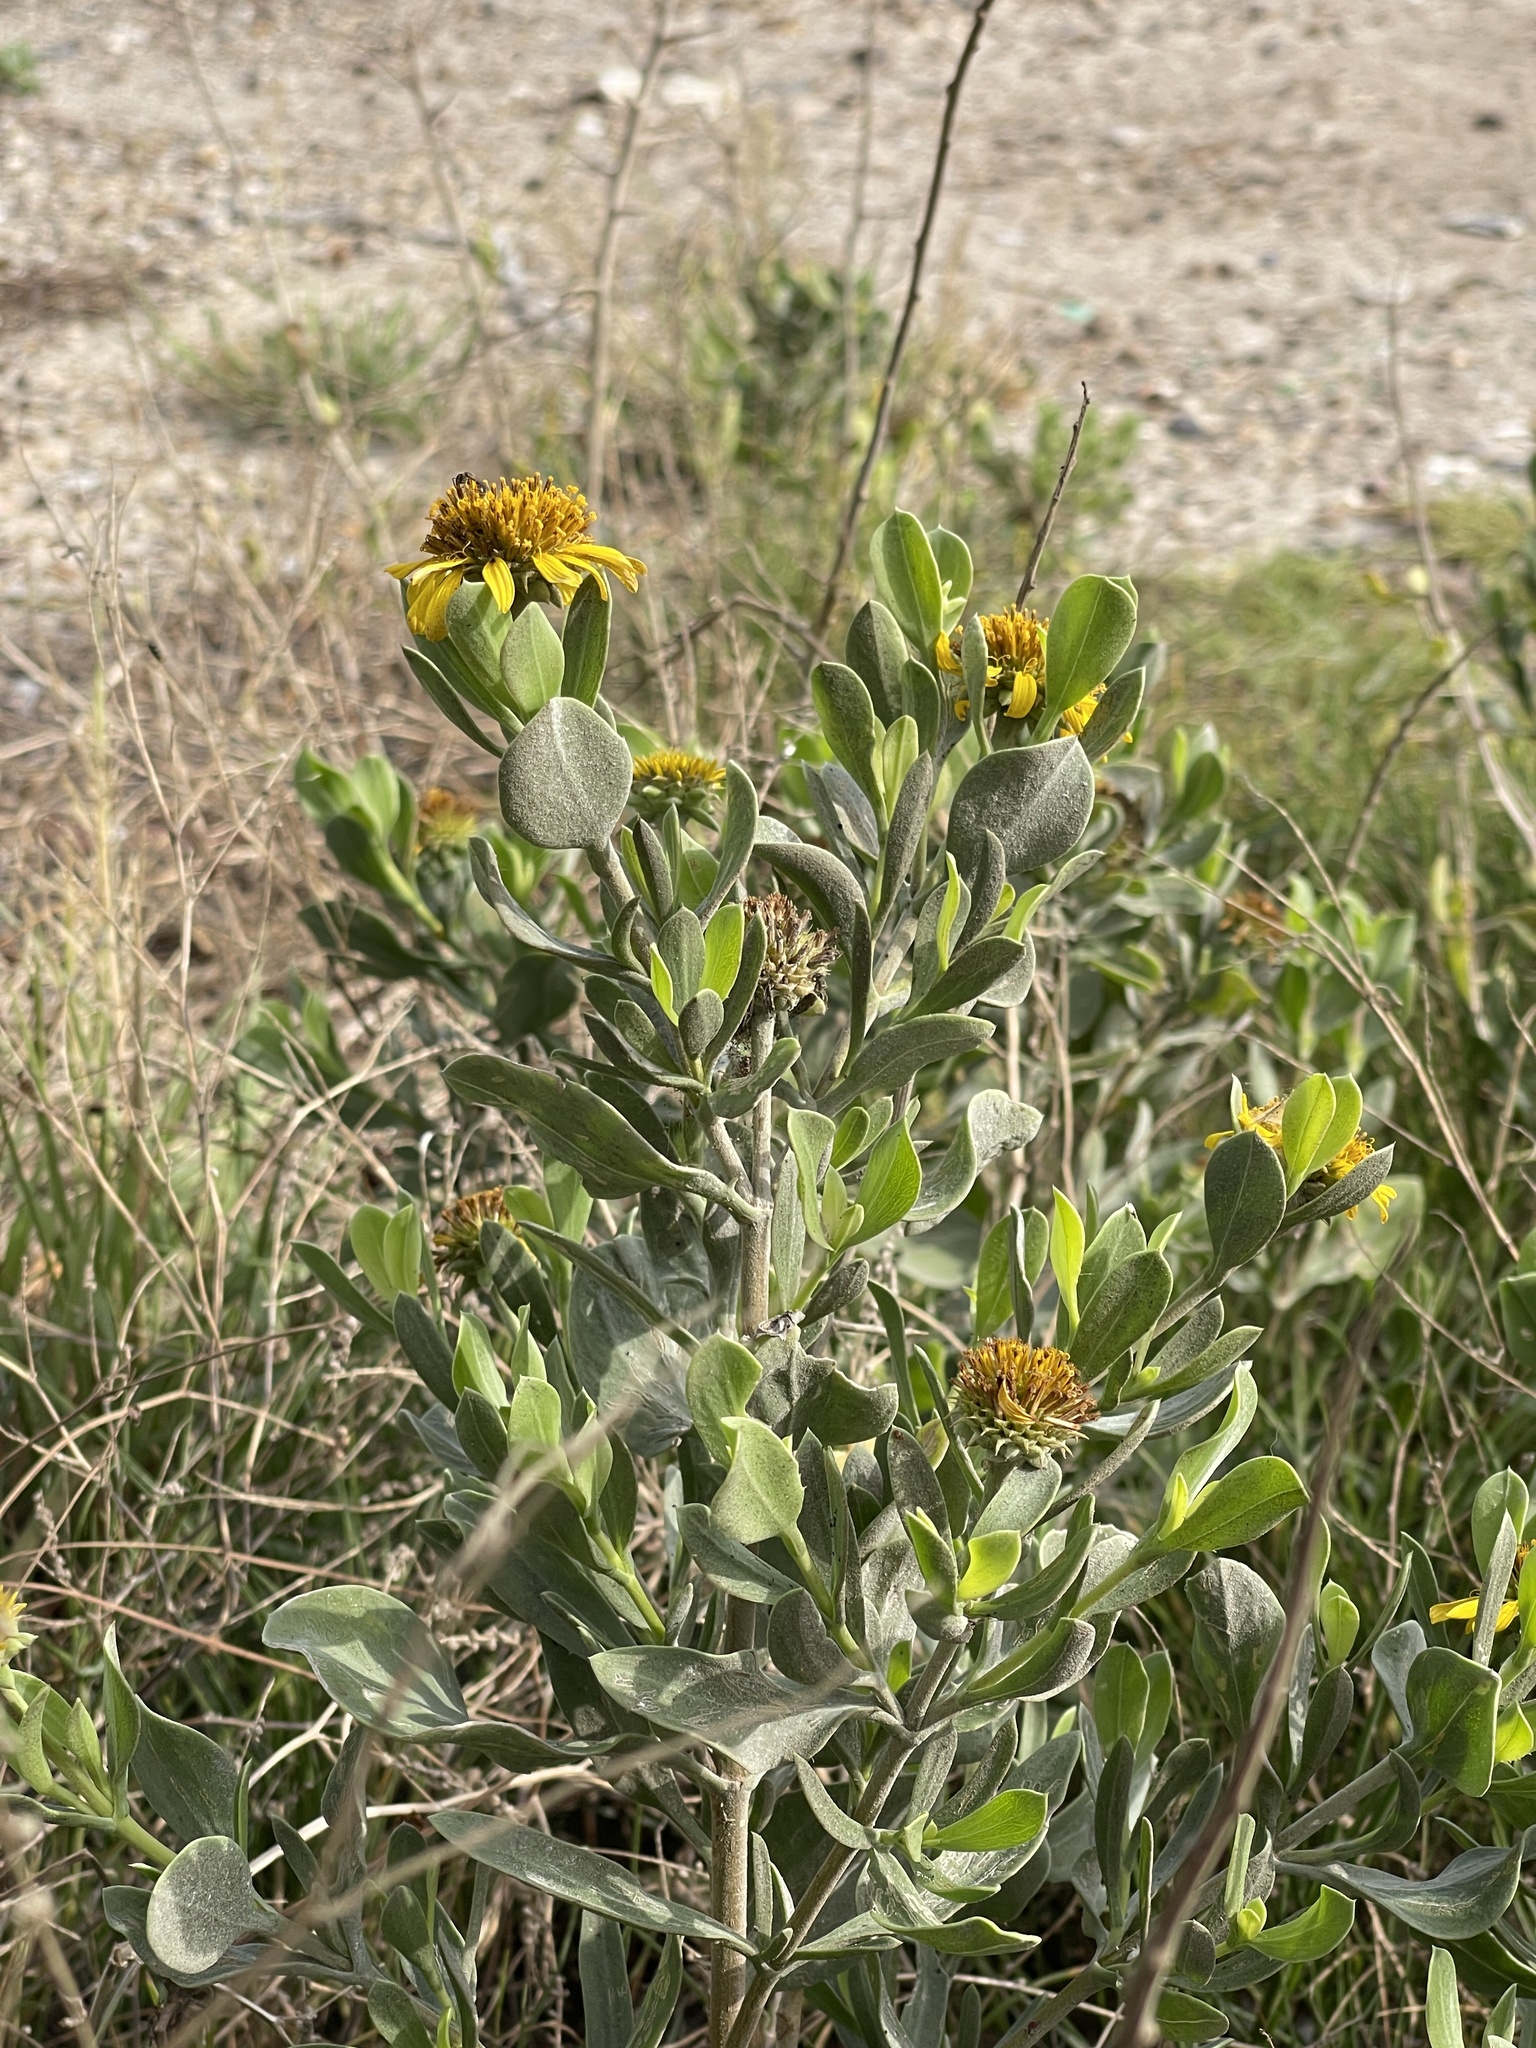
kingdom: Plantae
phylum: Tracheophyta
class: Magnoliopsida
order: Asterales
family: Asteraceae
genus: Borrichia
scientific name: Borrichia frutescens
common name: Sea oxeye
